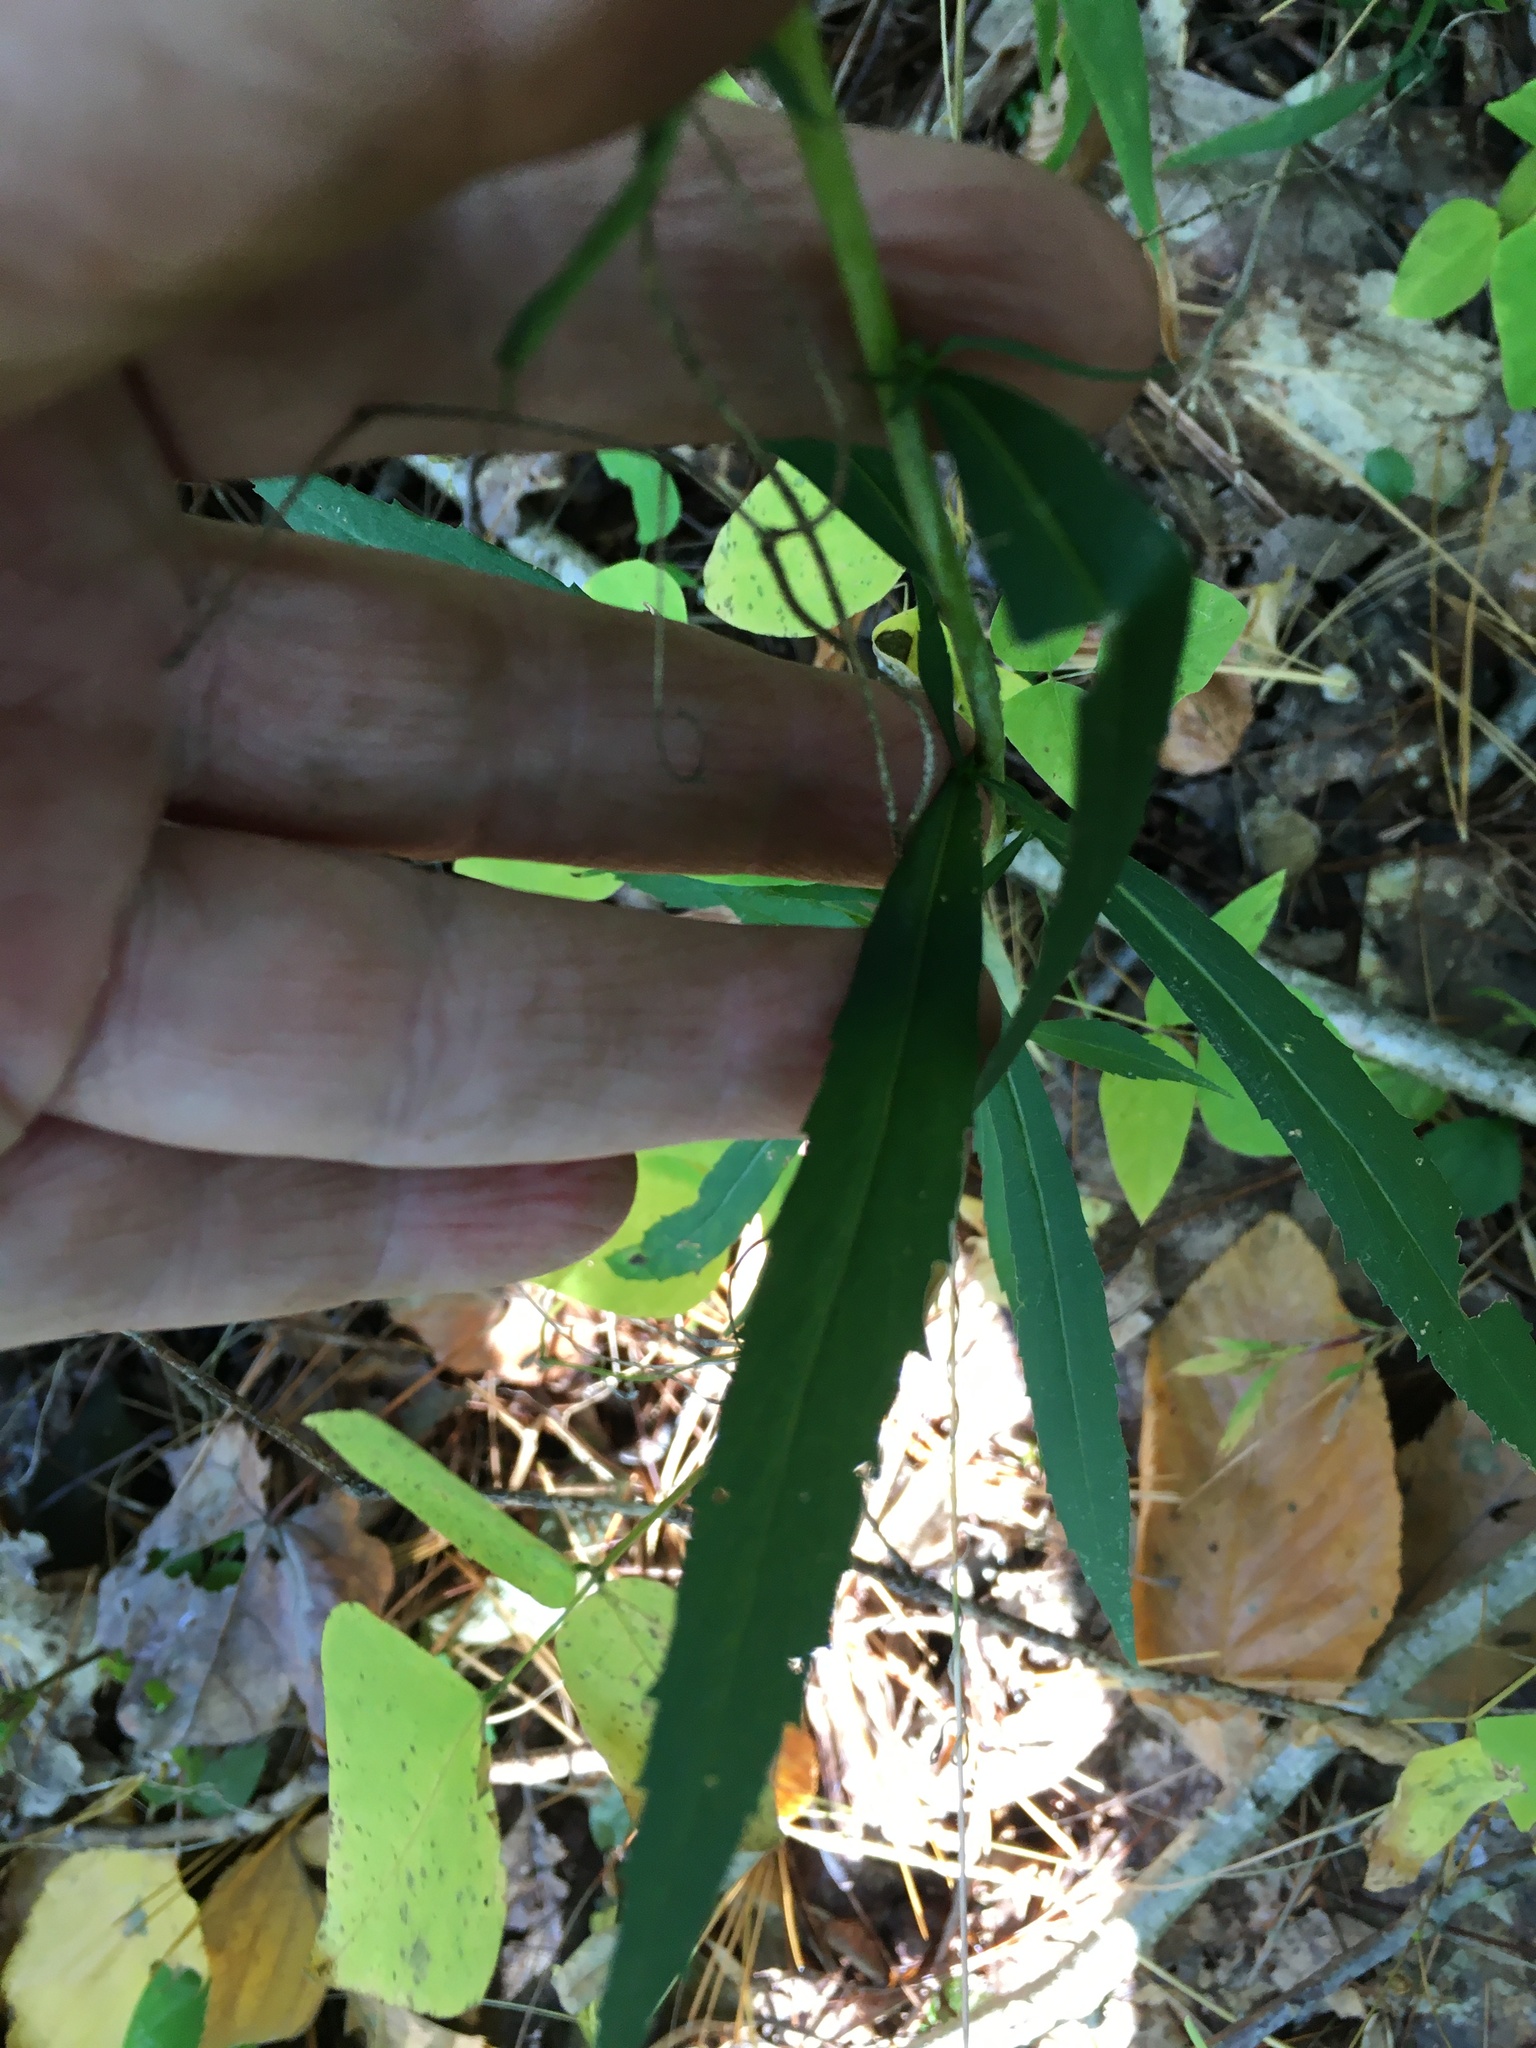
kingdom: Plantae
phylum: Tracheophyta
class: Magnoliopsida
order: Asterales
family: Asteraceae
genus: Solidago
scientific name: Solidago caesia
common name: Woodland goldenrod
